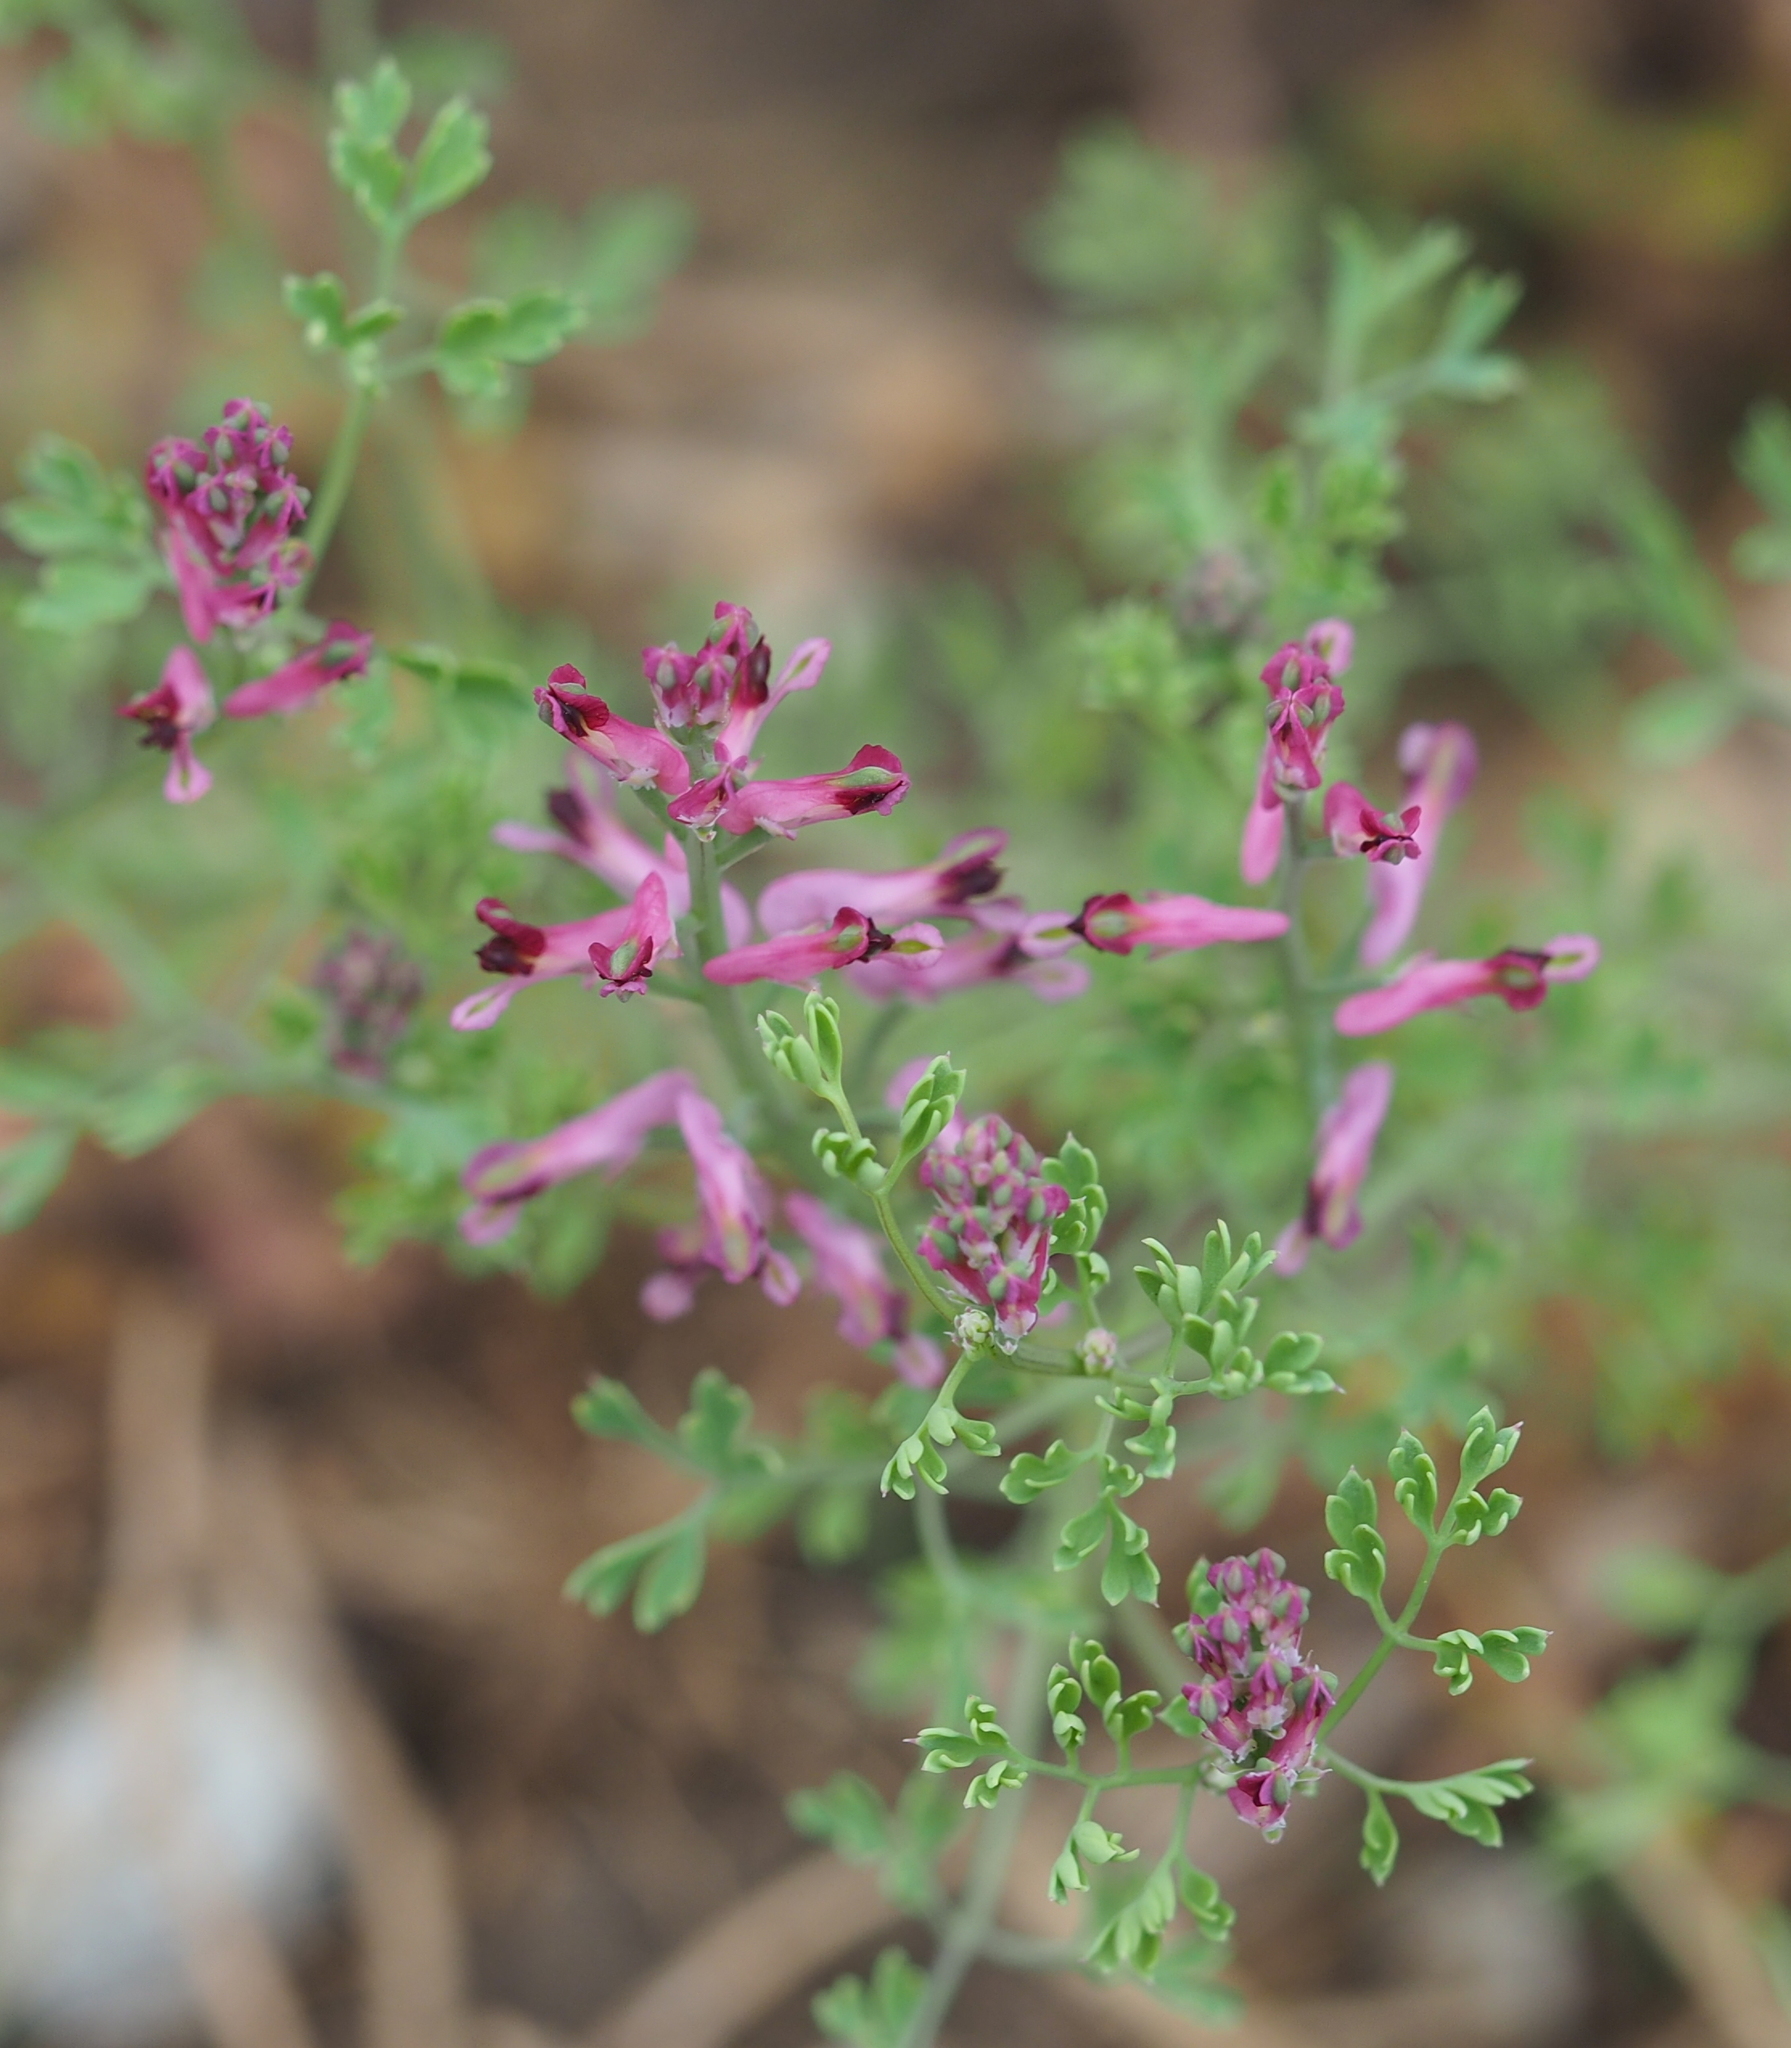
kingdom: Plantae
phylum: Tracheophyta
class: Magnoliopsida
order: Ranunculales
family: Papaveraceae
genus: Fumaria
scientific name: Fumaria officinalis
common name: Common fumitory
